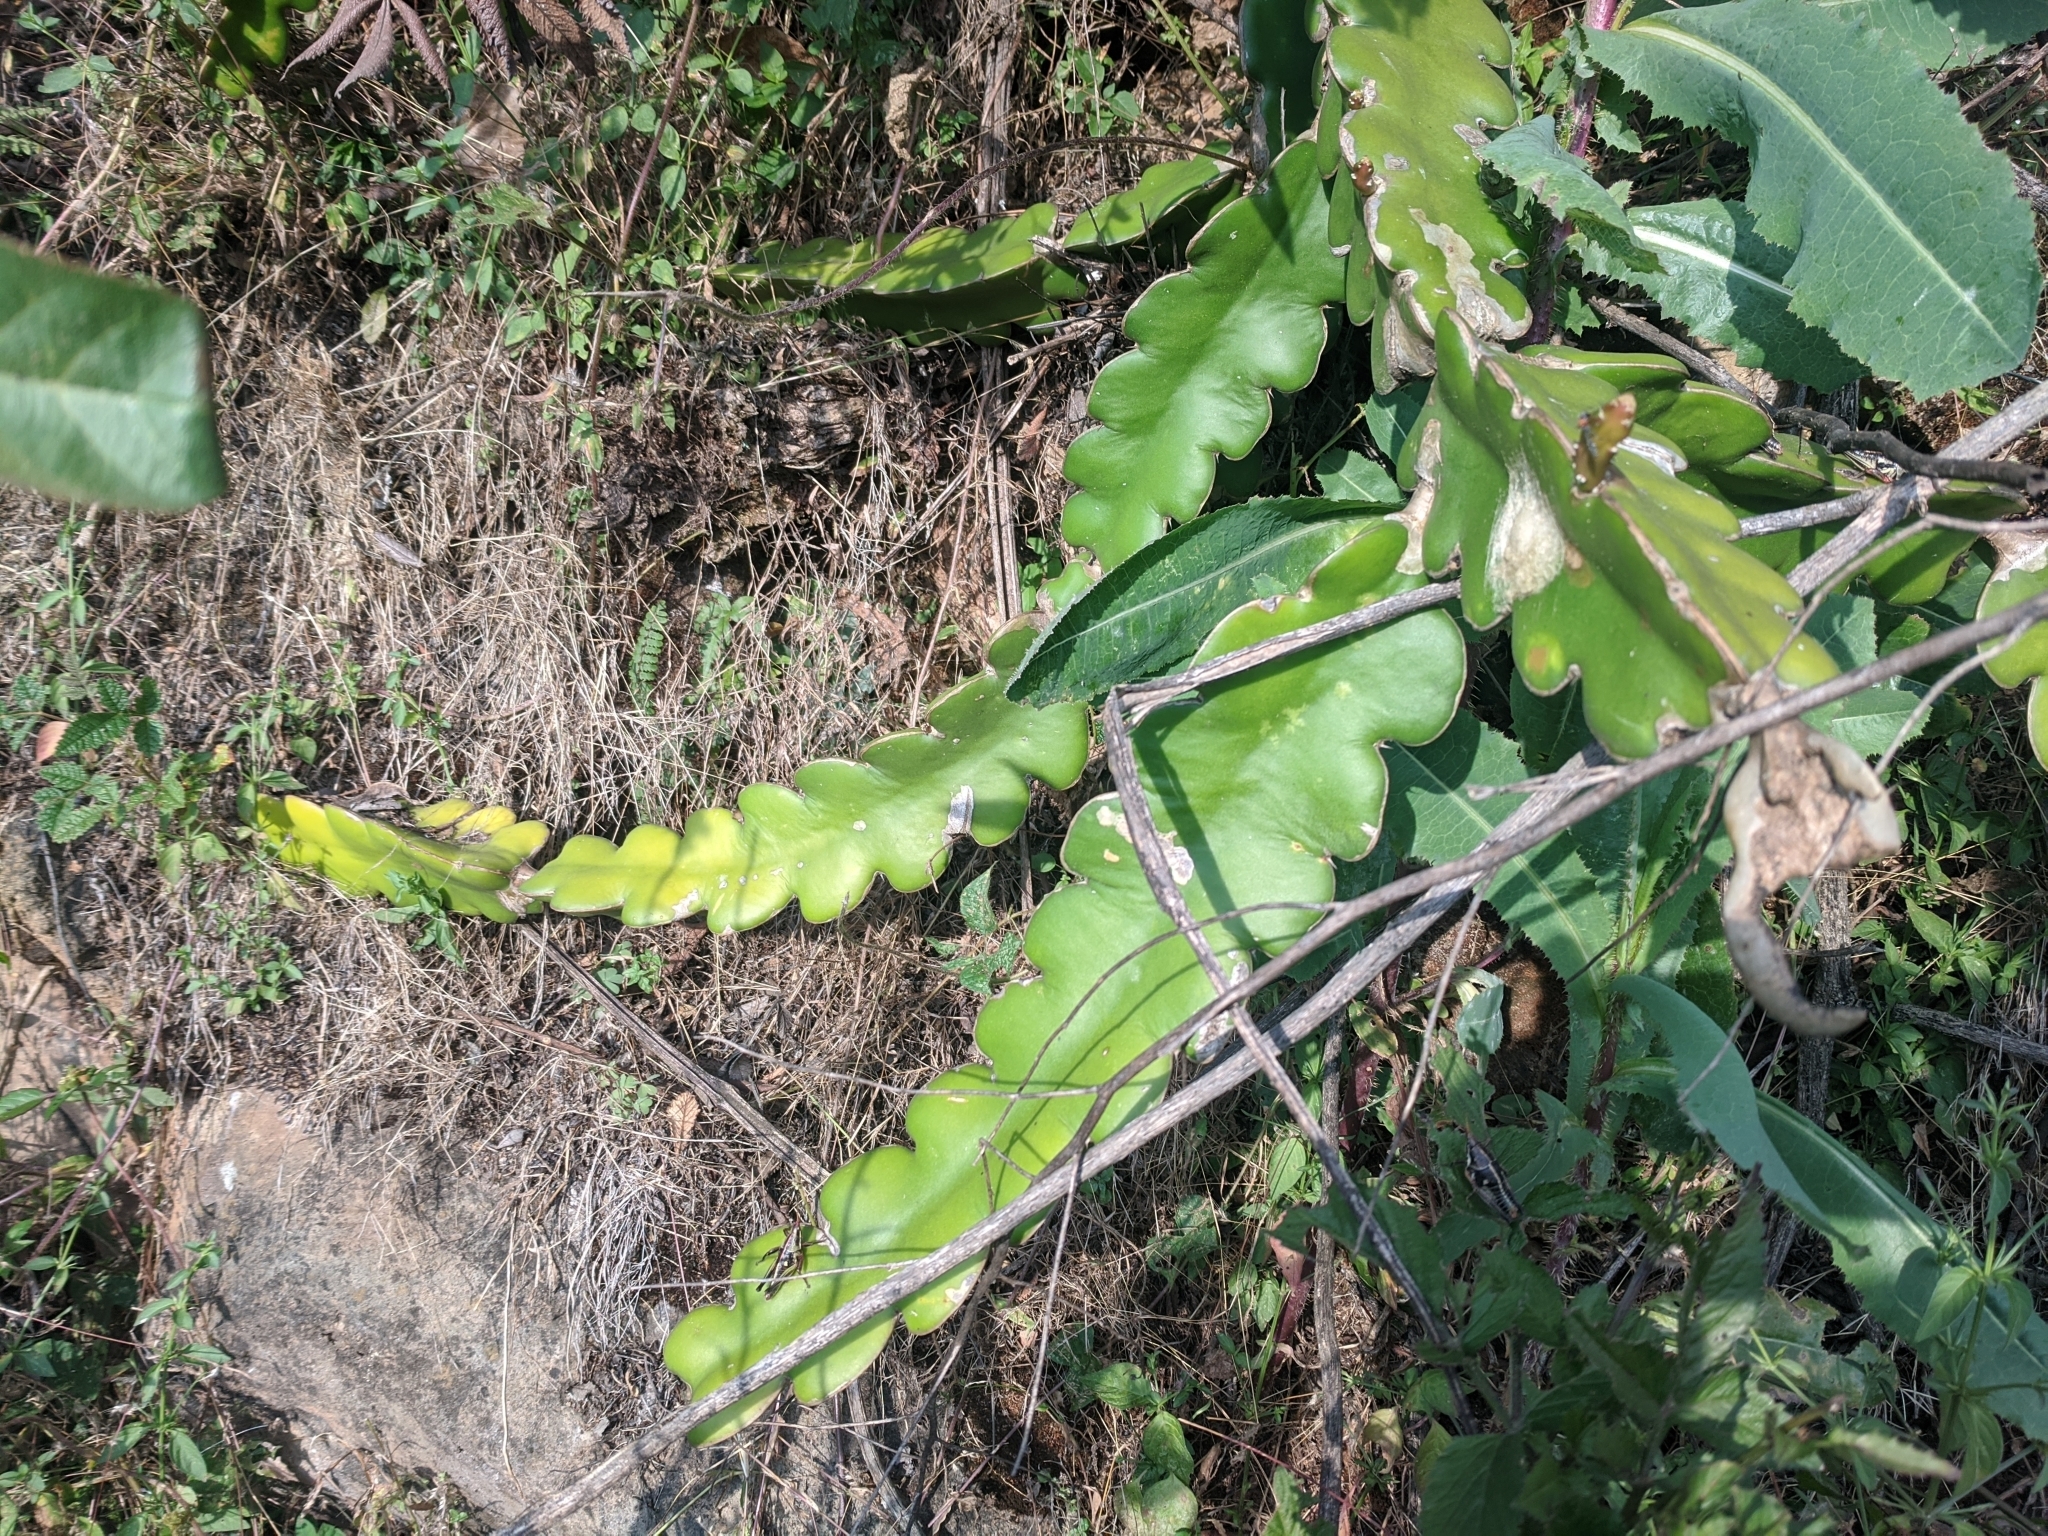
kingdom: Plantae
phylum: Tracheophyta
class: Magnoliopsida
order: Caryophyllales
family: Cactaceae
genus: Selenicereus
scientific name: Selenicereus undatus
